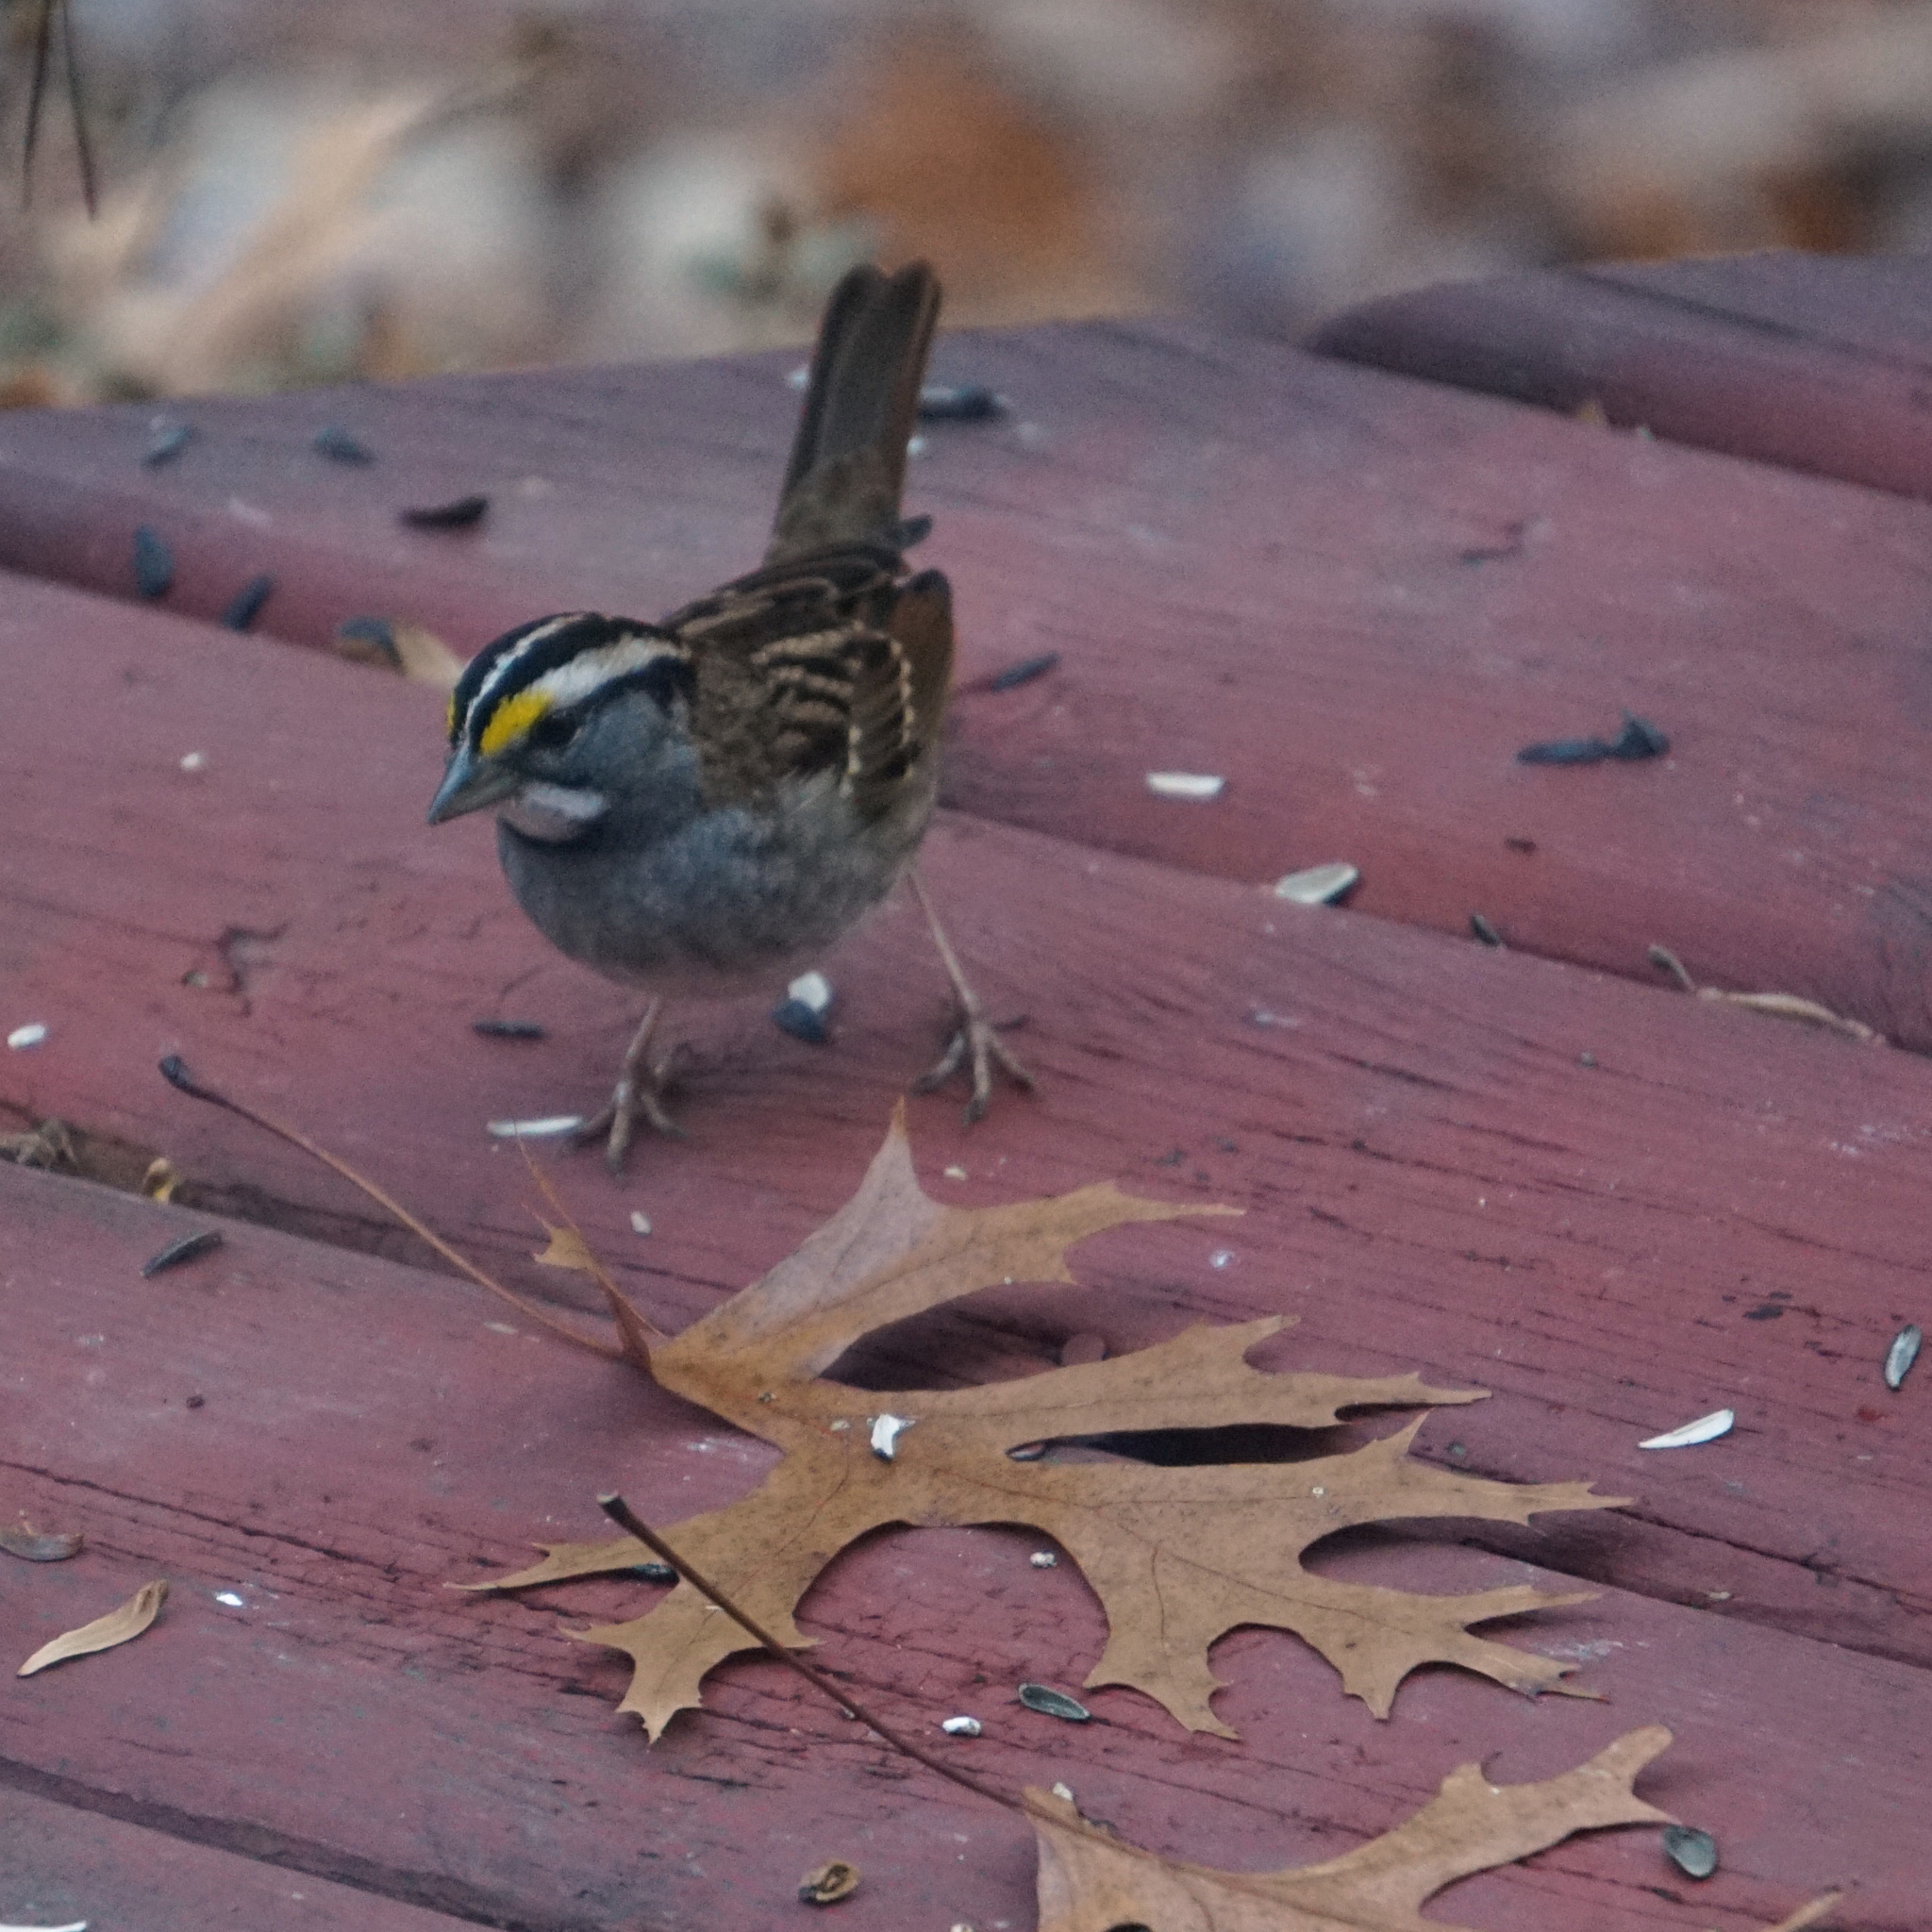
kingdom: Animalia
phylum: Chordata
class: Aves
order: Passeriformes
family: Passerellidae
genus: Zonotrichia
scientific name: Zonotrichia albicollis
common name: White-throated sparrow
